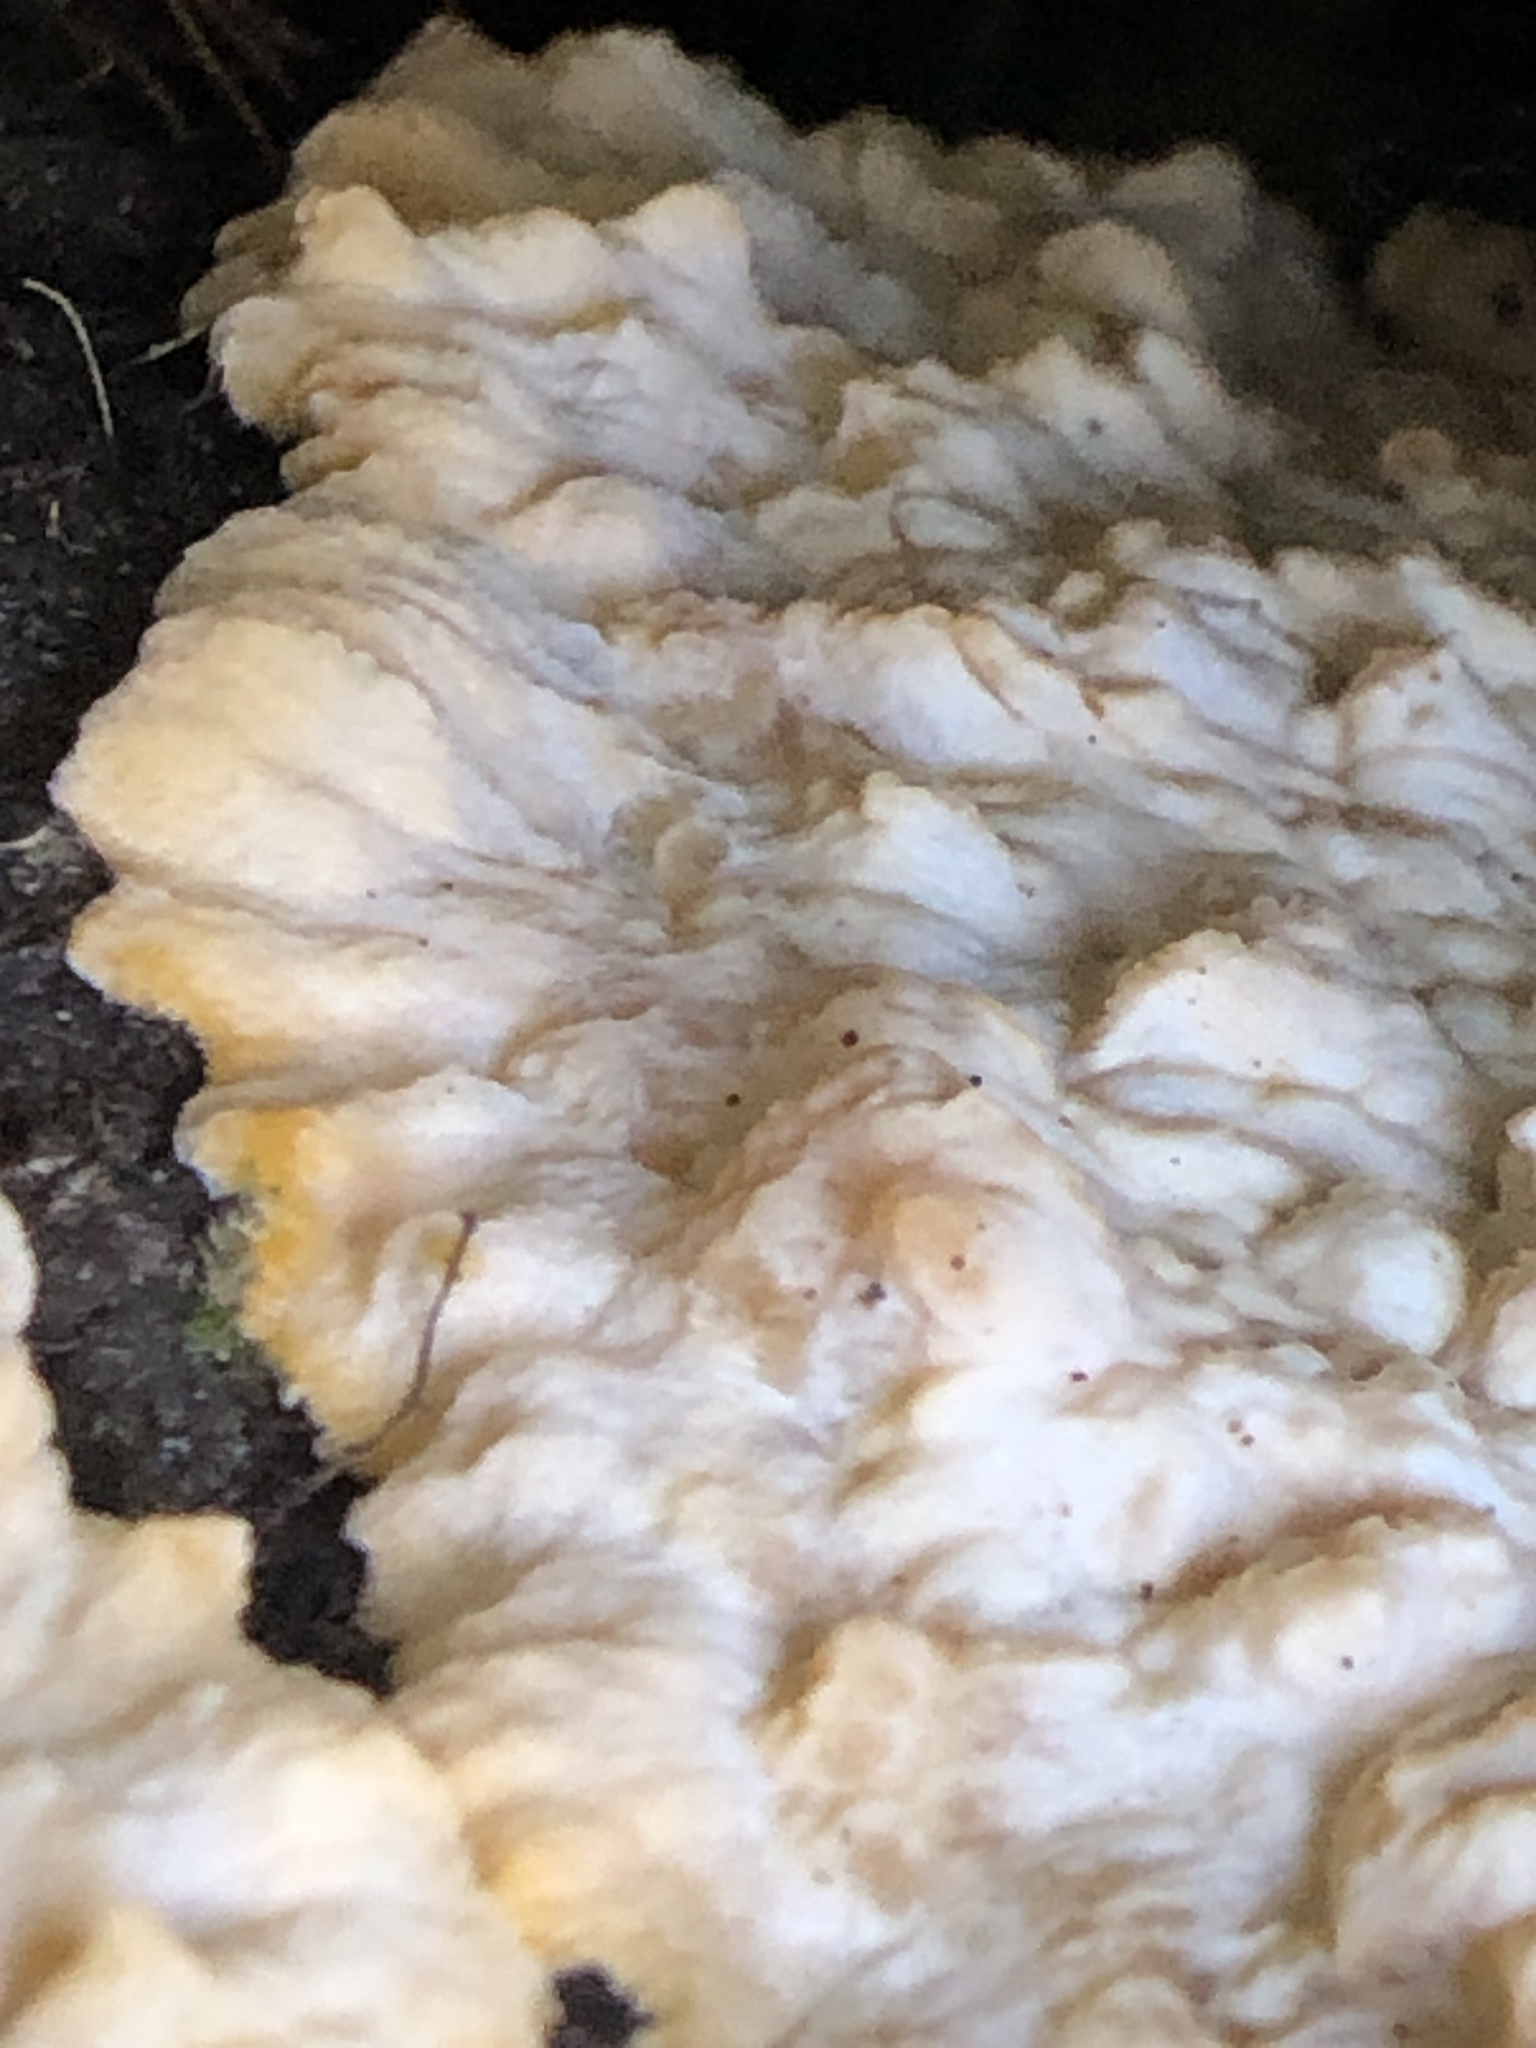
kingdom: Fungi
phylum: Basidiomycota
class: Agaricomycetes
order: Polyporales
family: Meruliaceae
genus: Phlebia
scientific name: Phlebia radiata
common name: Wrinkled crust
